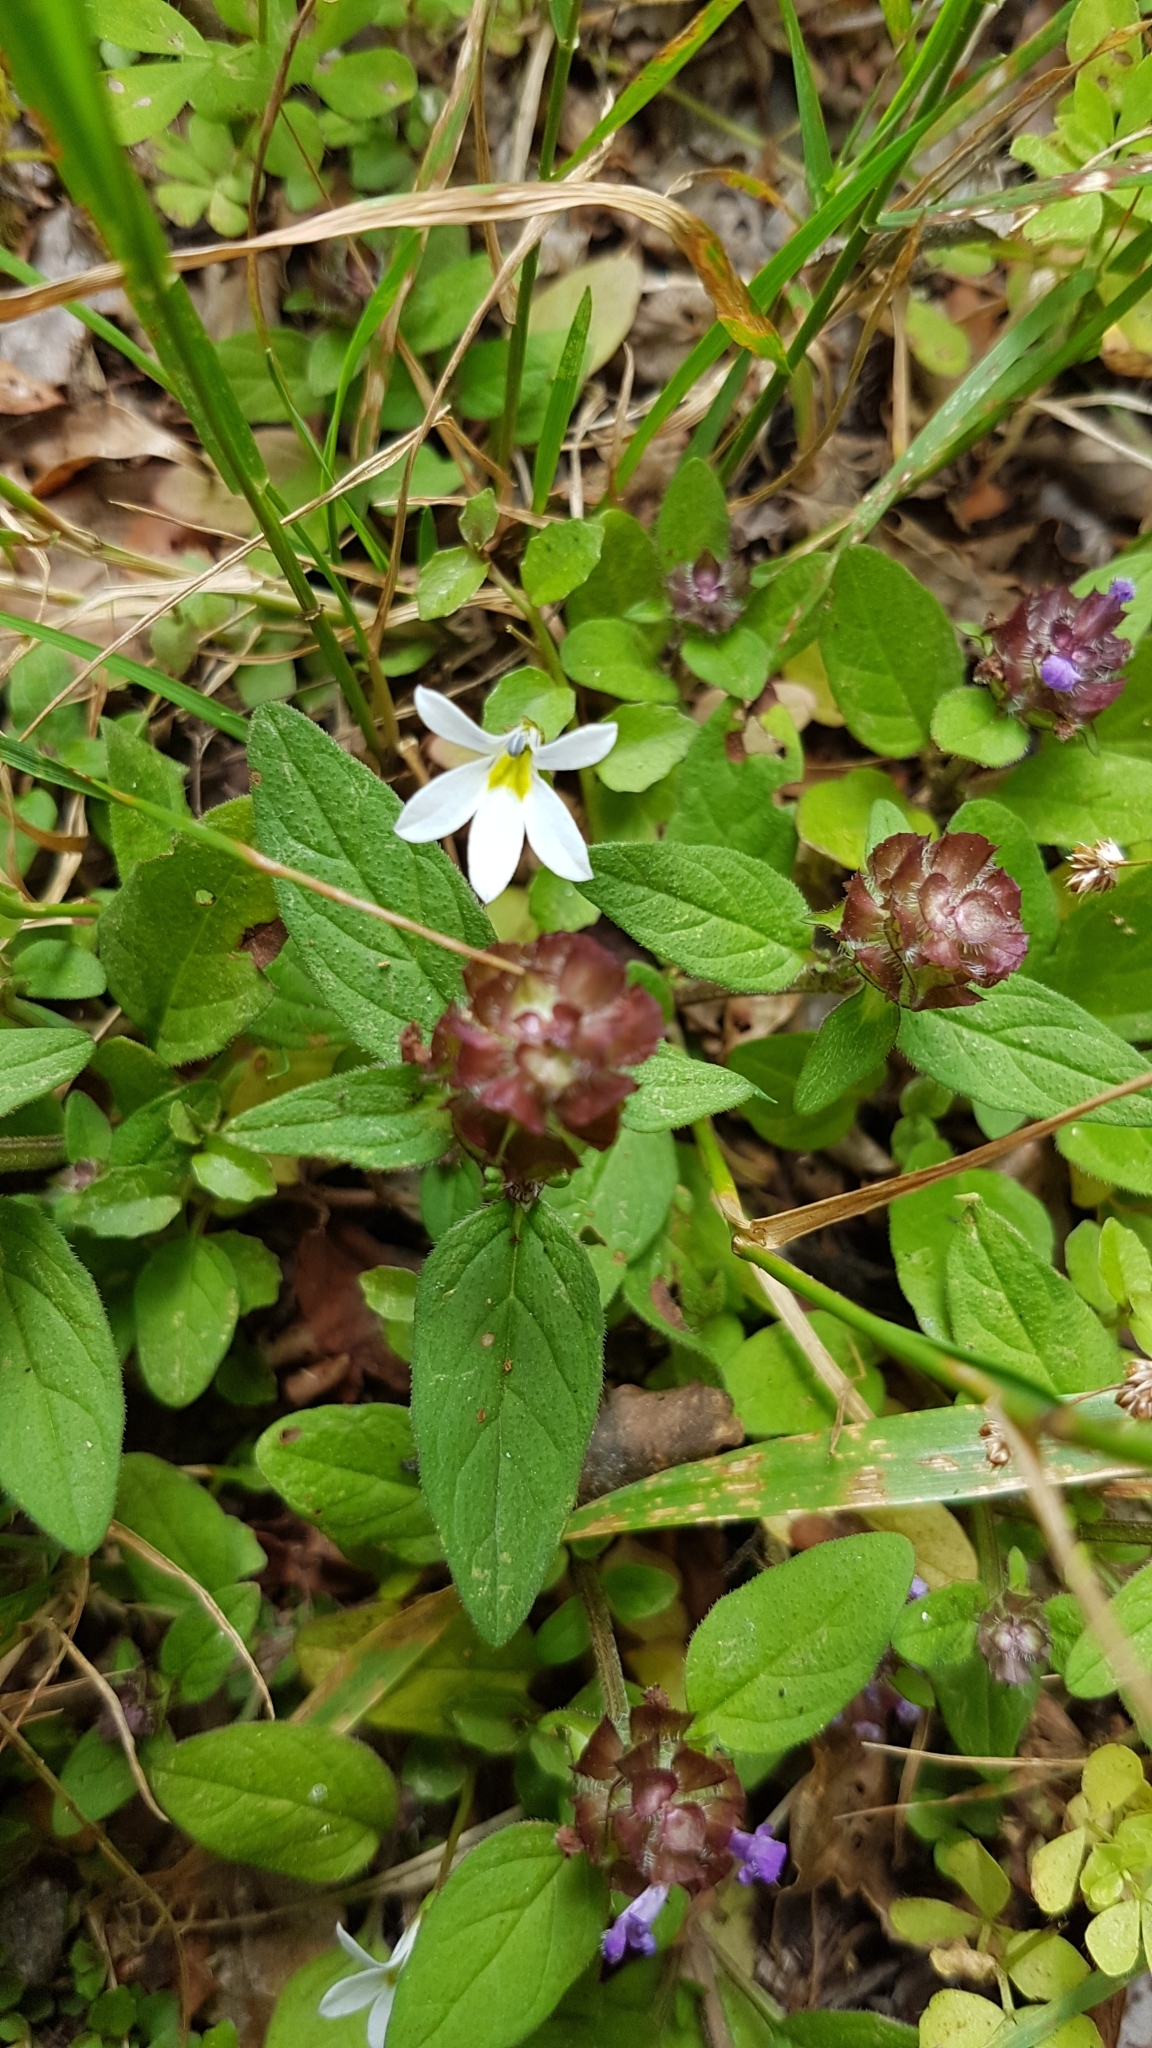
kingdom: Plantae
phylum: Tracheophyta
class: Magnoliopsida
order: Asterales
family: Campanulaceae
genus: Lobelia
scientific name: Lobelia angulata
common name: Lawn lobelia
